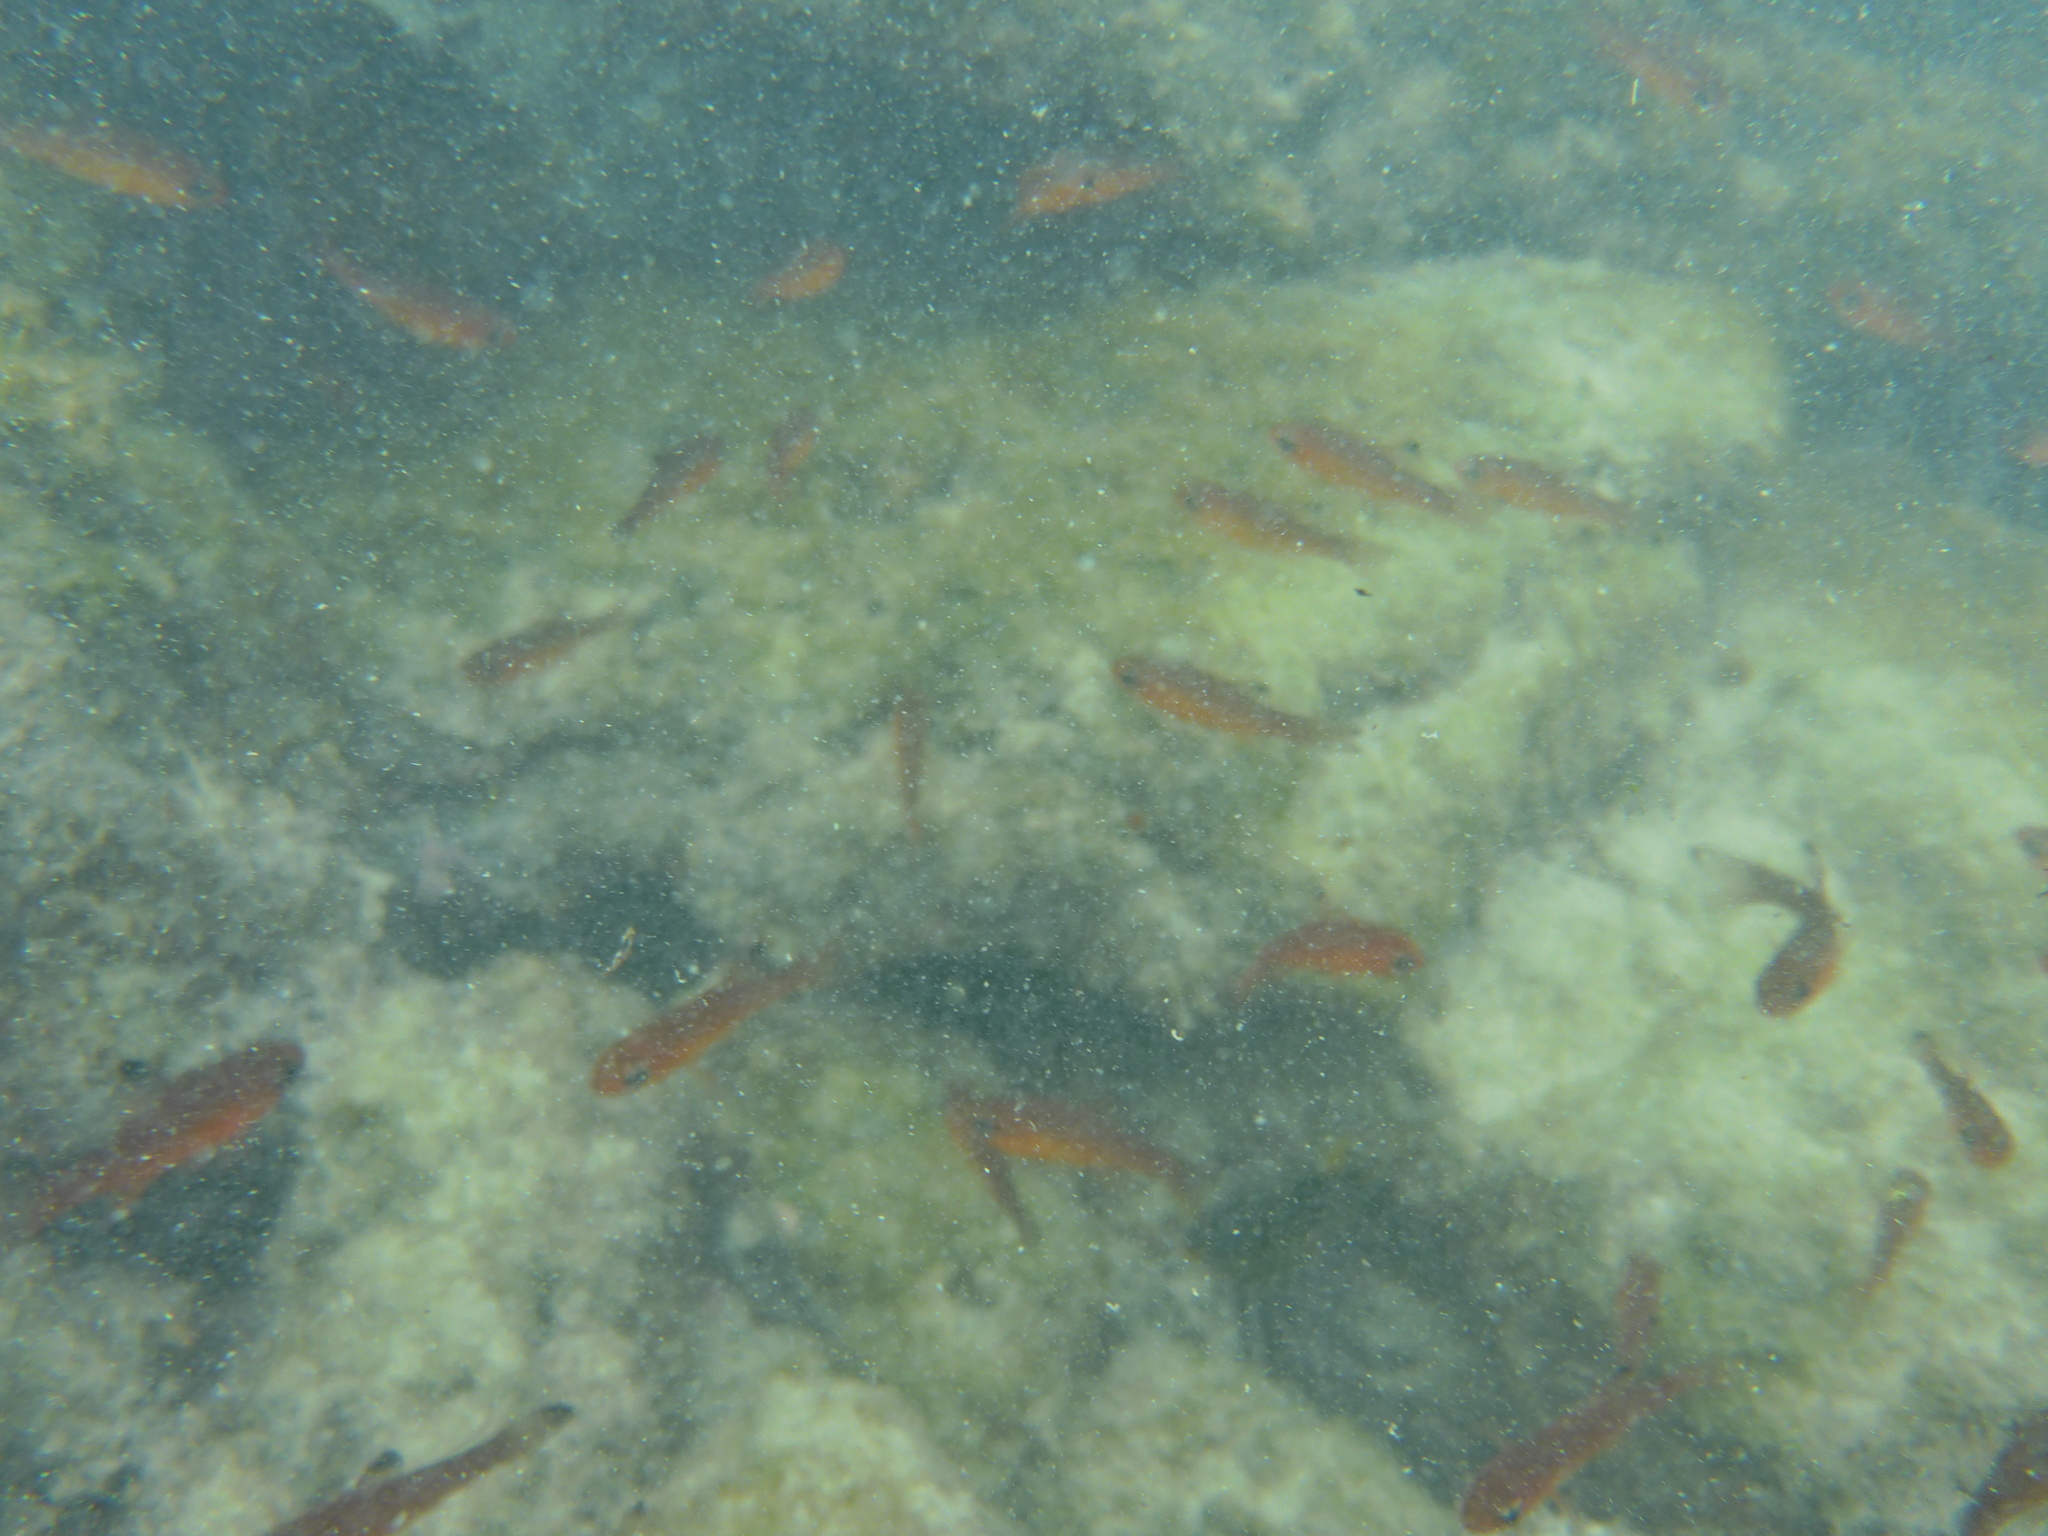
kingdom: Animalia
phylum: Chordata
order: Perciformes
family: Apogonidae
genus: Apogon
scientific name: Apogon atradorsatus
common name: Blacktip cardinalfish
